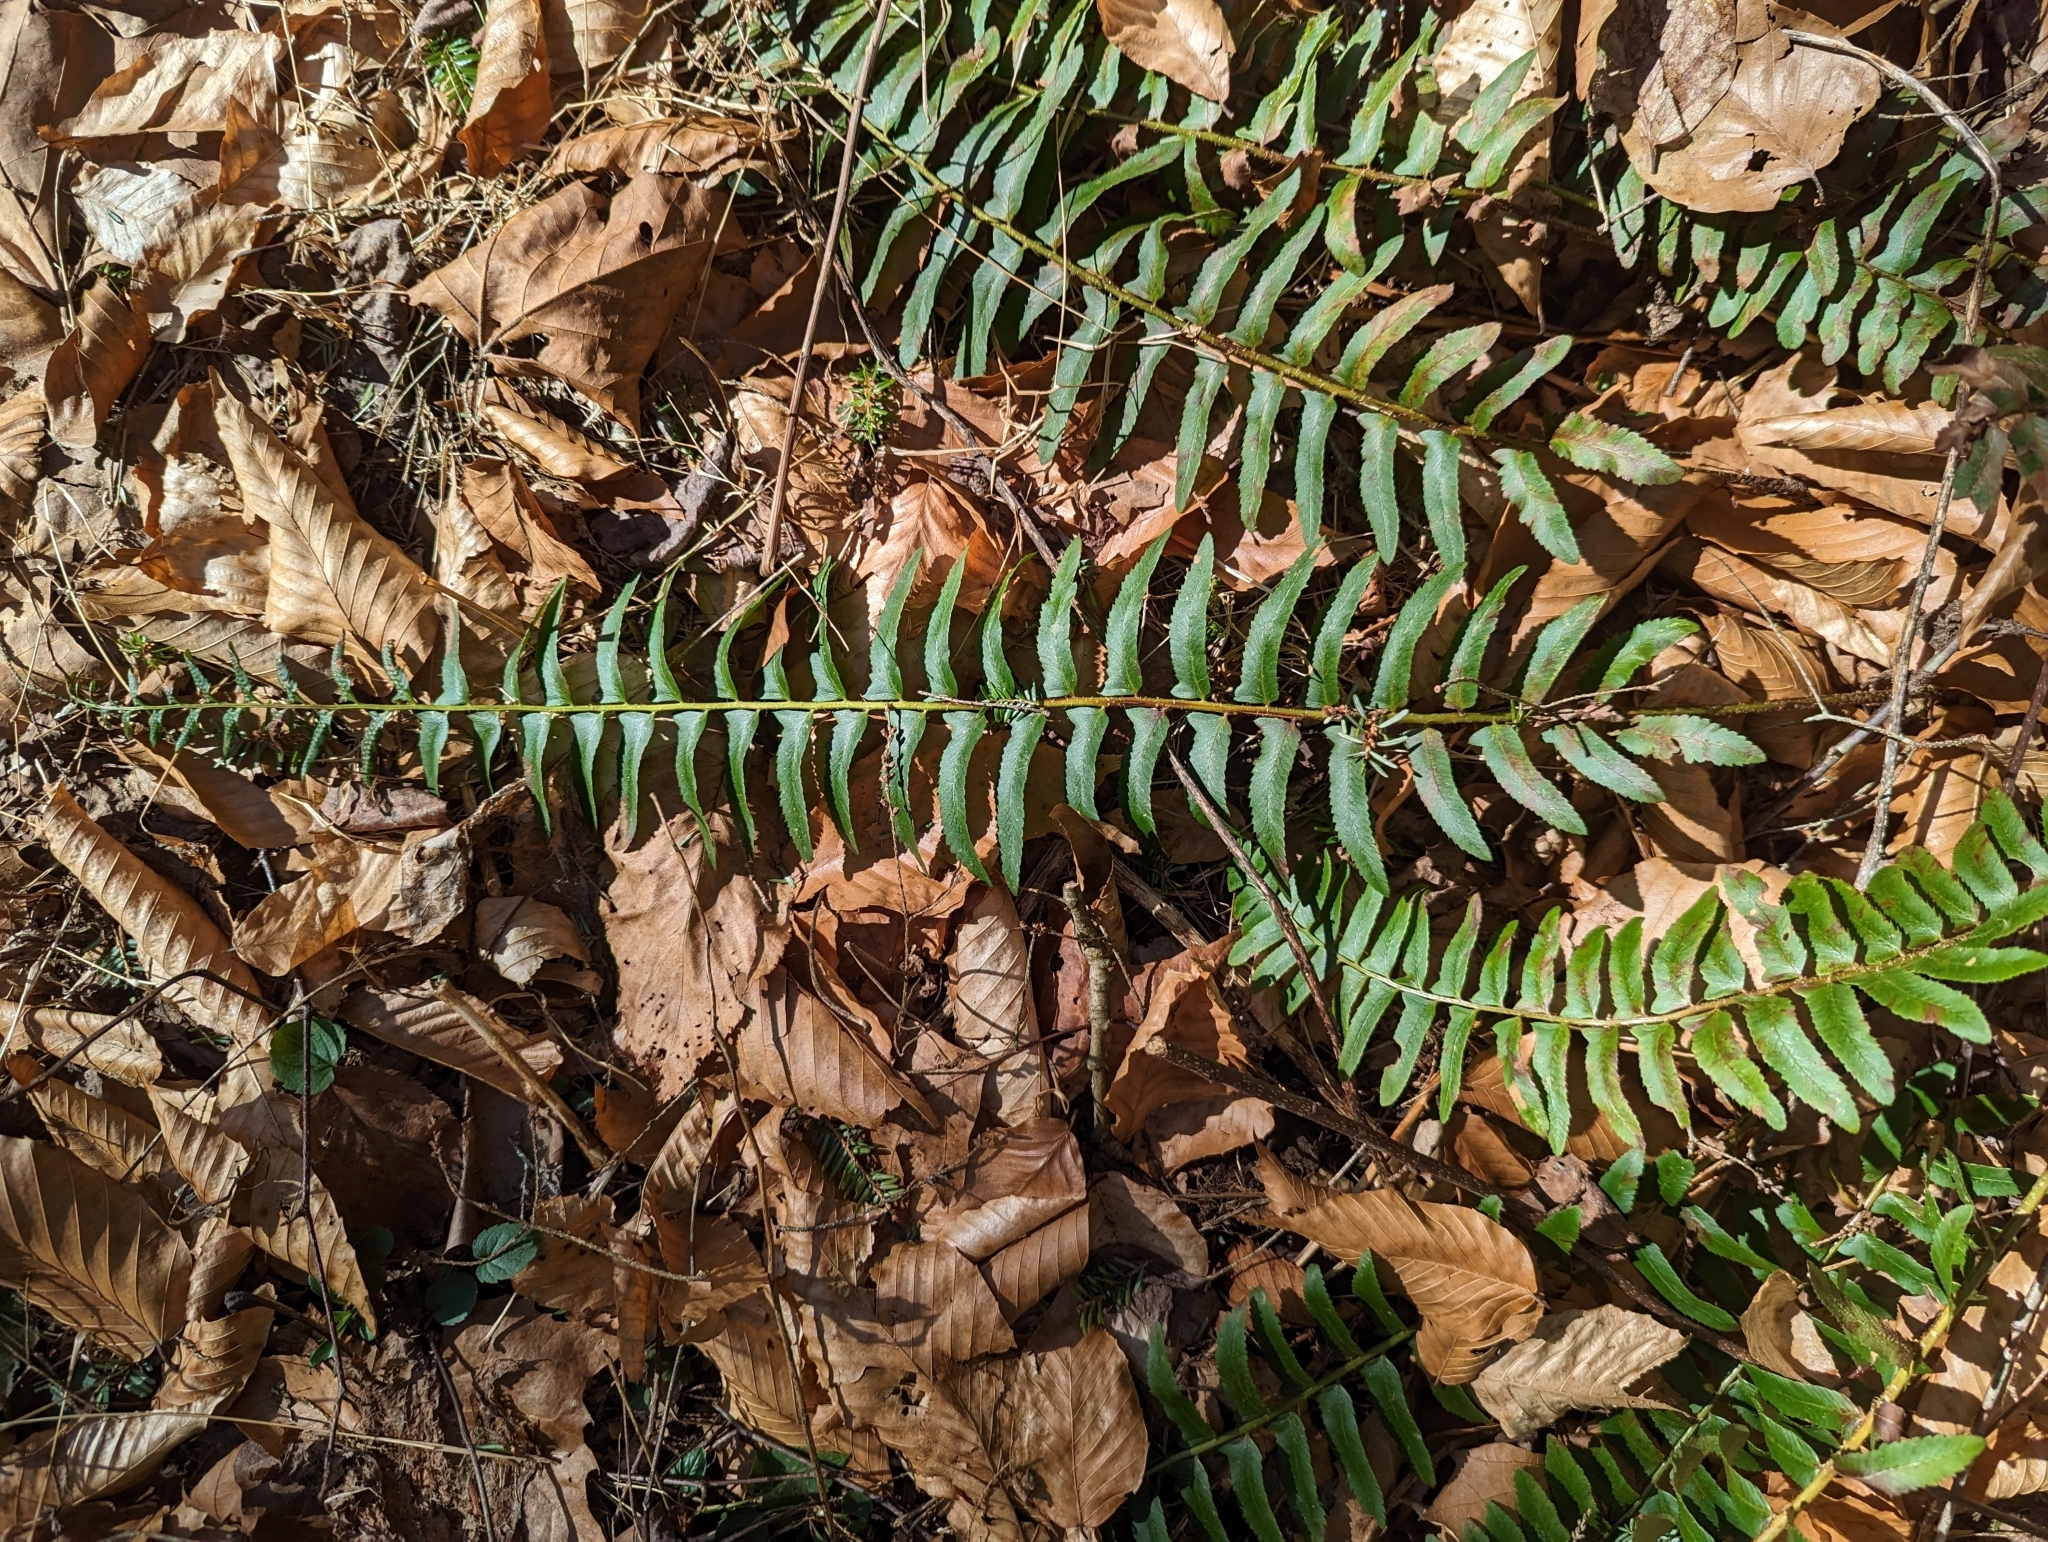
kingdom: Plantae
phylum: Tracheophyta
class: Polypodiopsida
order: Polypodiales
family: Dryopteridaceae
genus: Polystichum
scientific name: Polystichum acrostichoides
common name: Christmas fern
